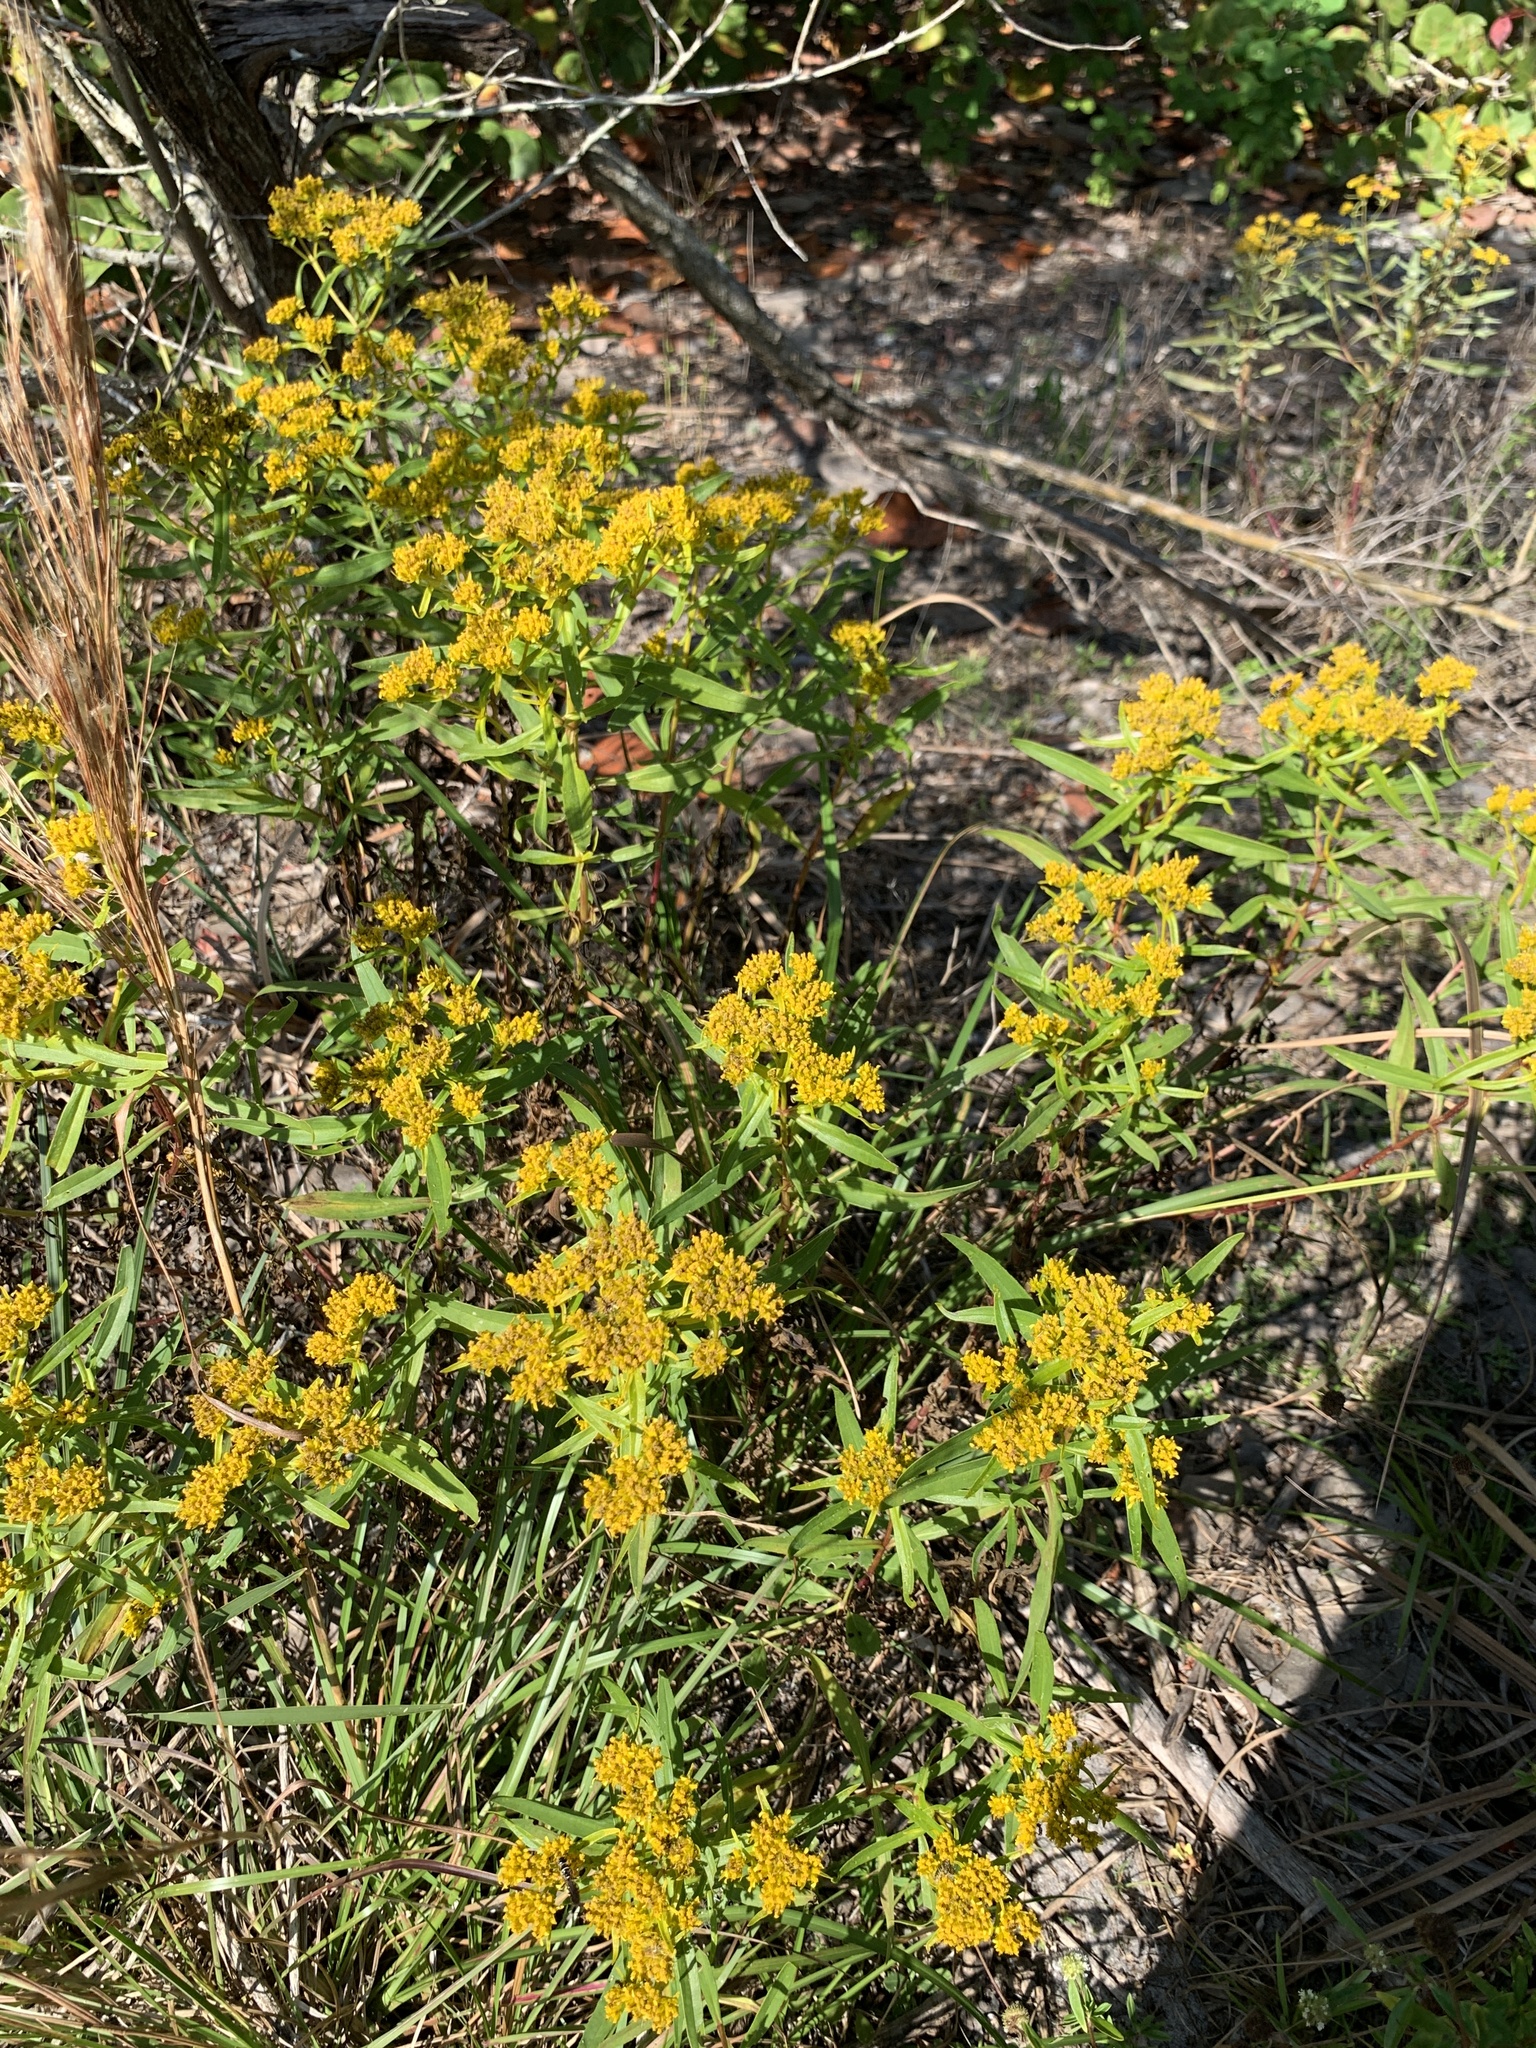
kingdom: Plantae
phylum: Tracheophyta
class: Magnoliopsida
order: Asterales
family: Asteraceae
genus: Flaveria
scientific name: Flaveria linearis
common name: Yellowtop
